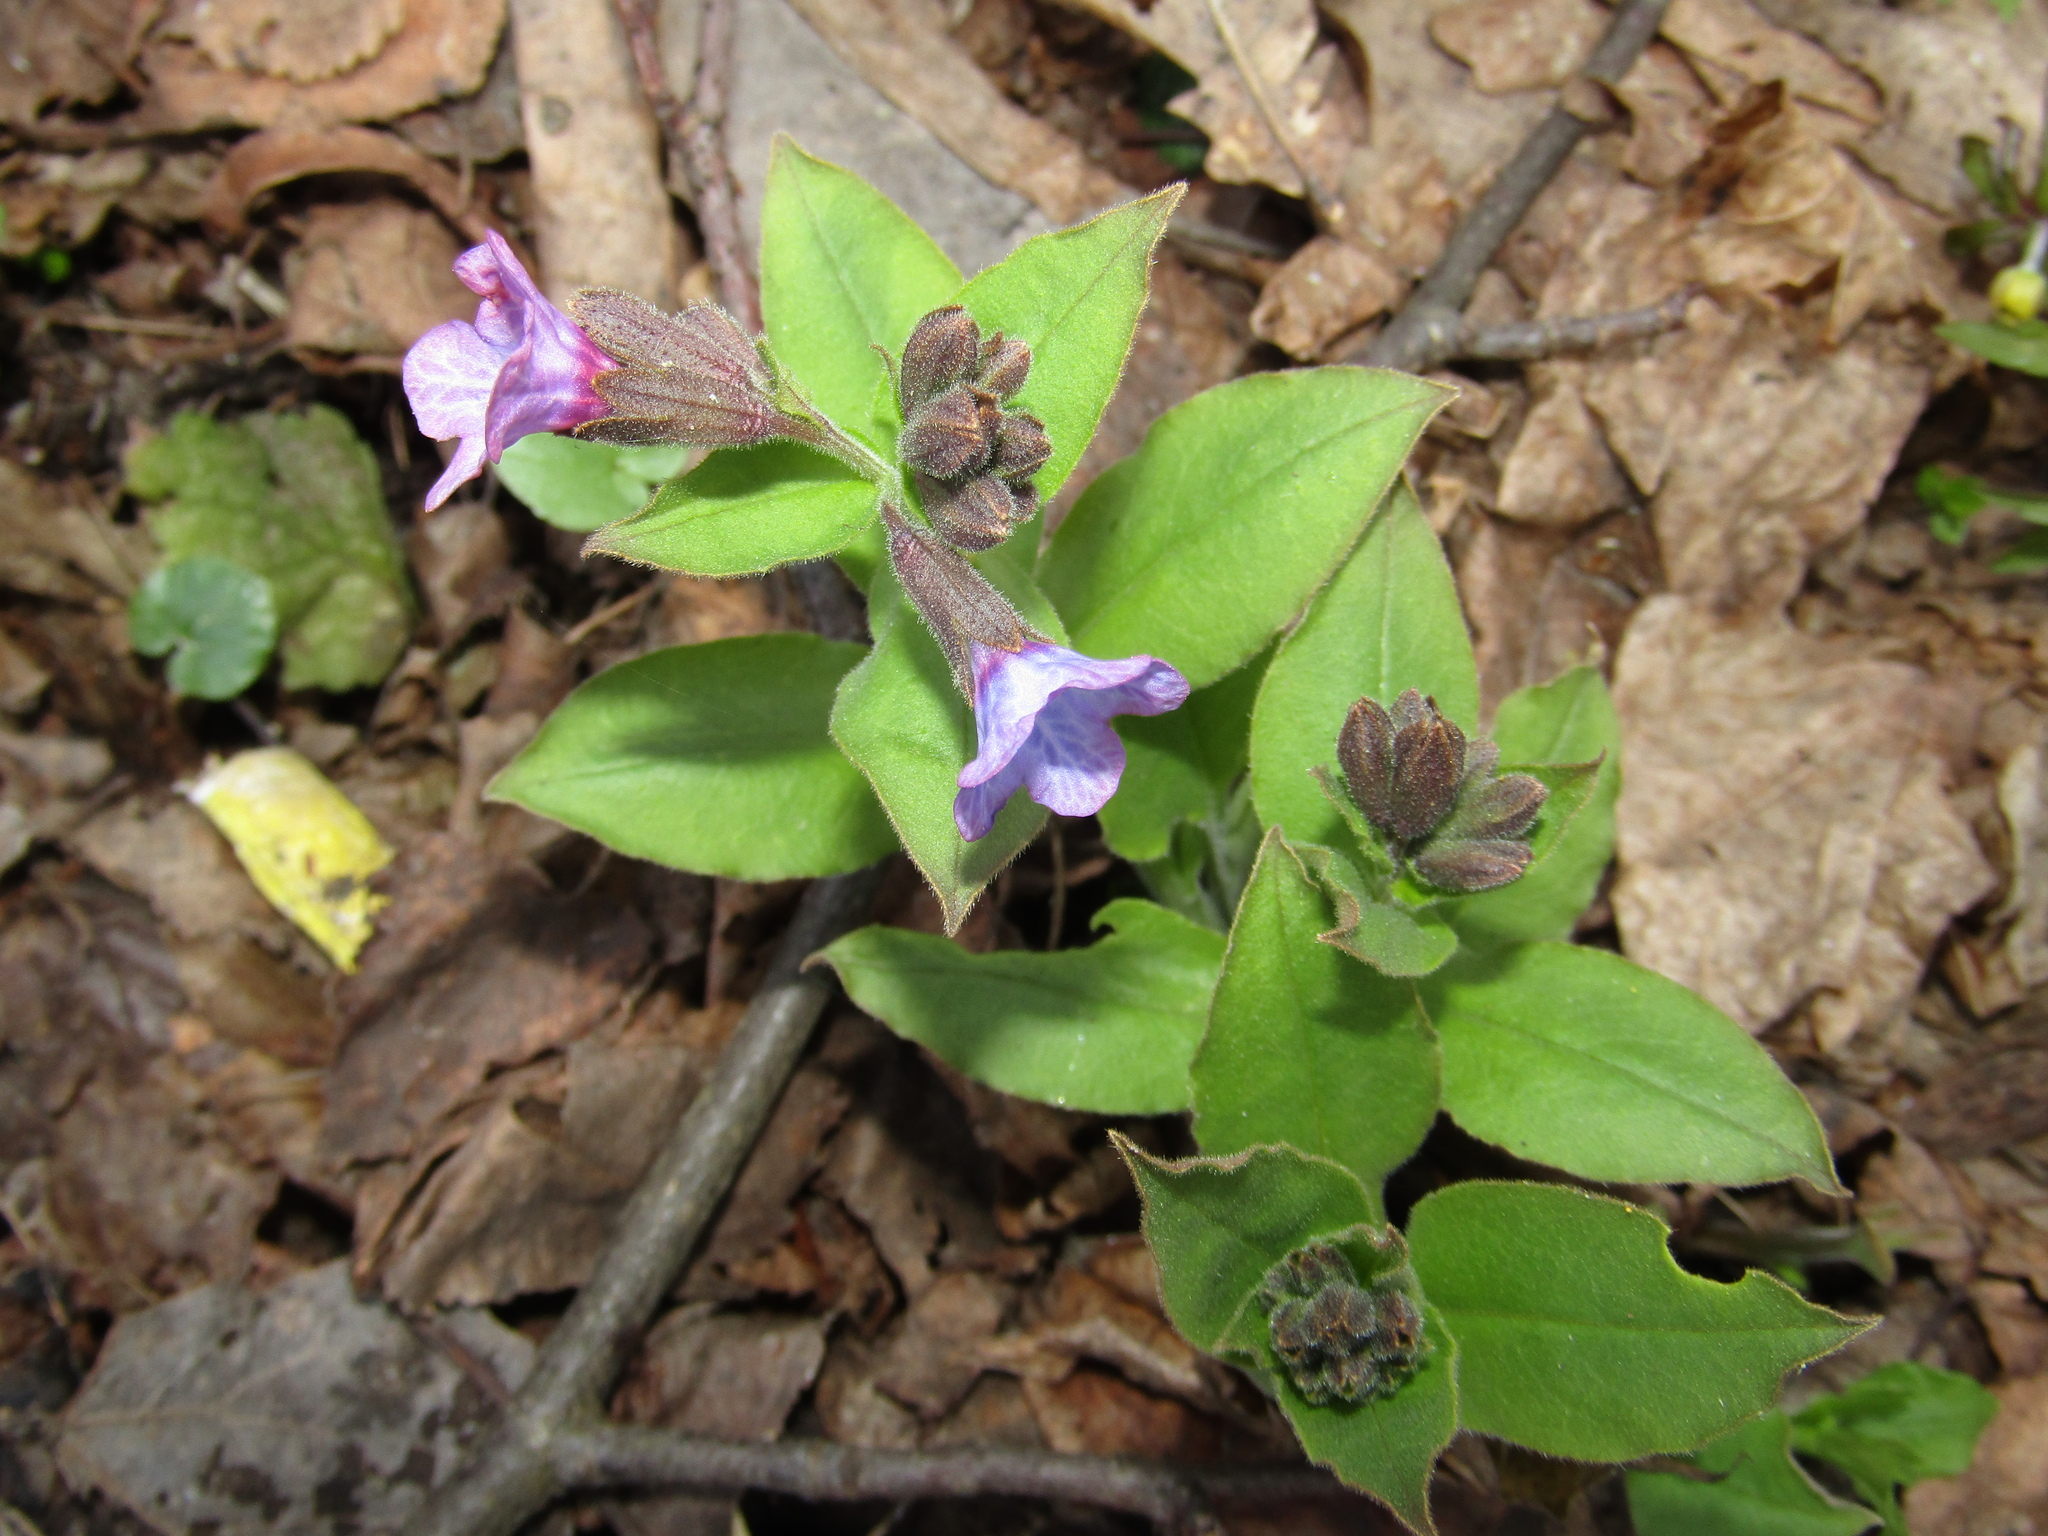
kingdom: Plantae
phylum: Tracheophyta
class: Magnoliopsida
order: Boraginales
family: Boraginaceae
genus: Pulmonaria
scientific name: Pulmonaria obscura
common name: Suffolk lungwort
